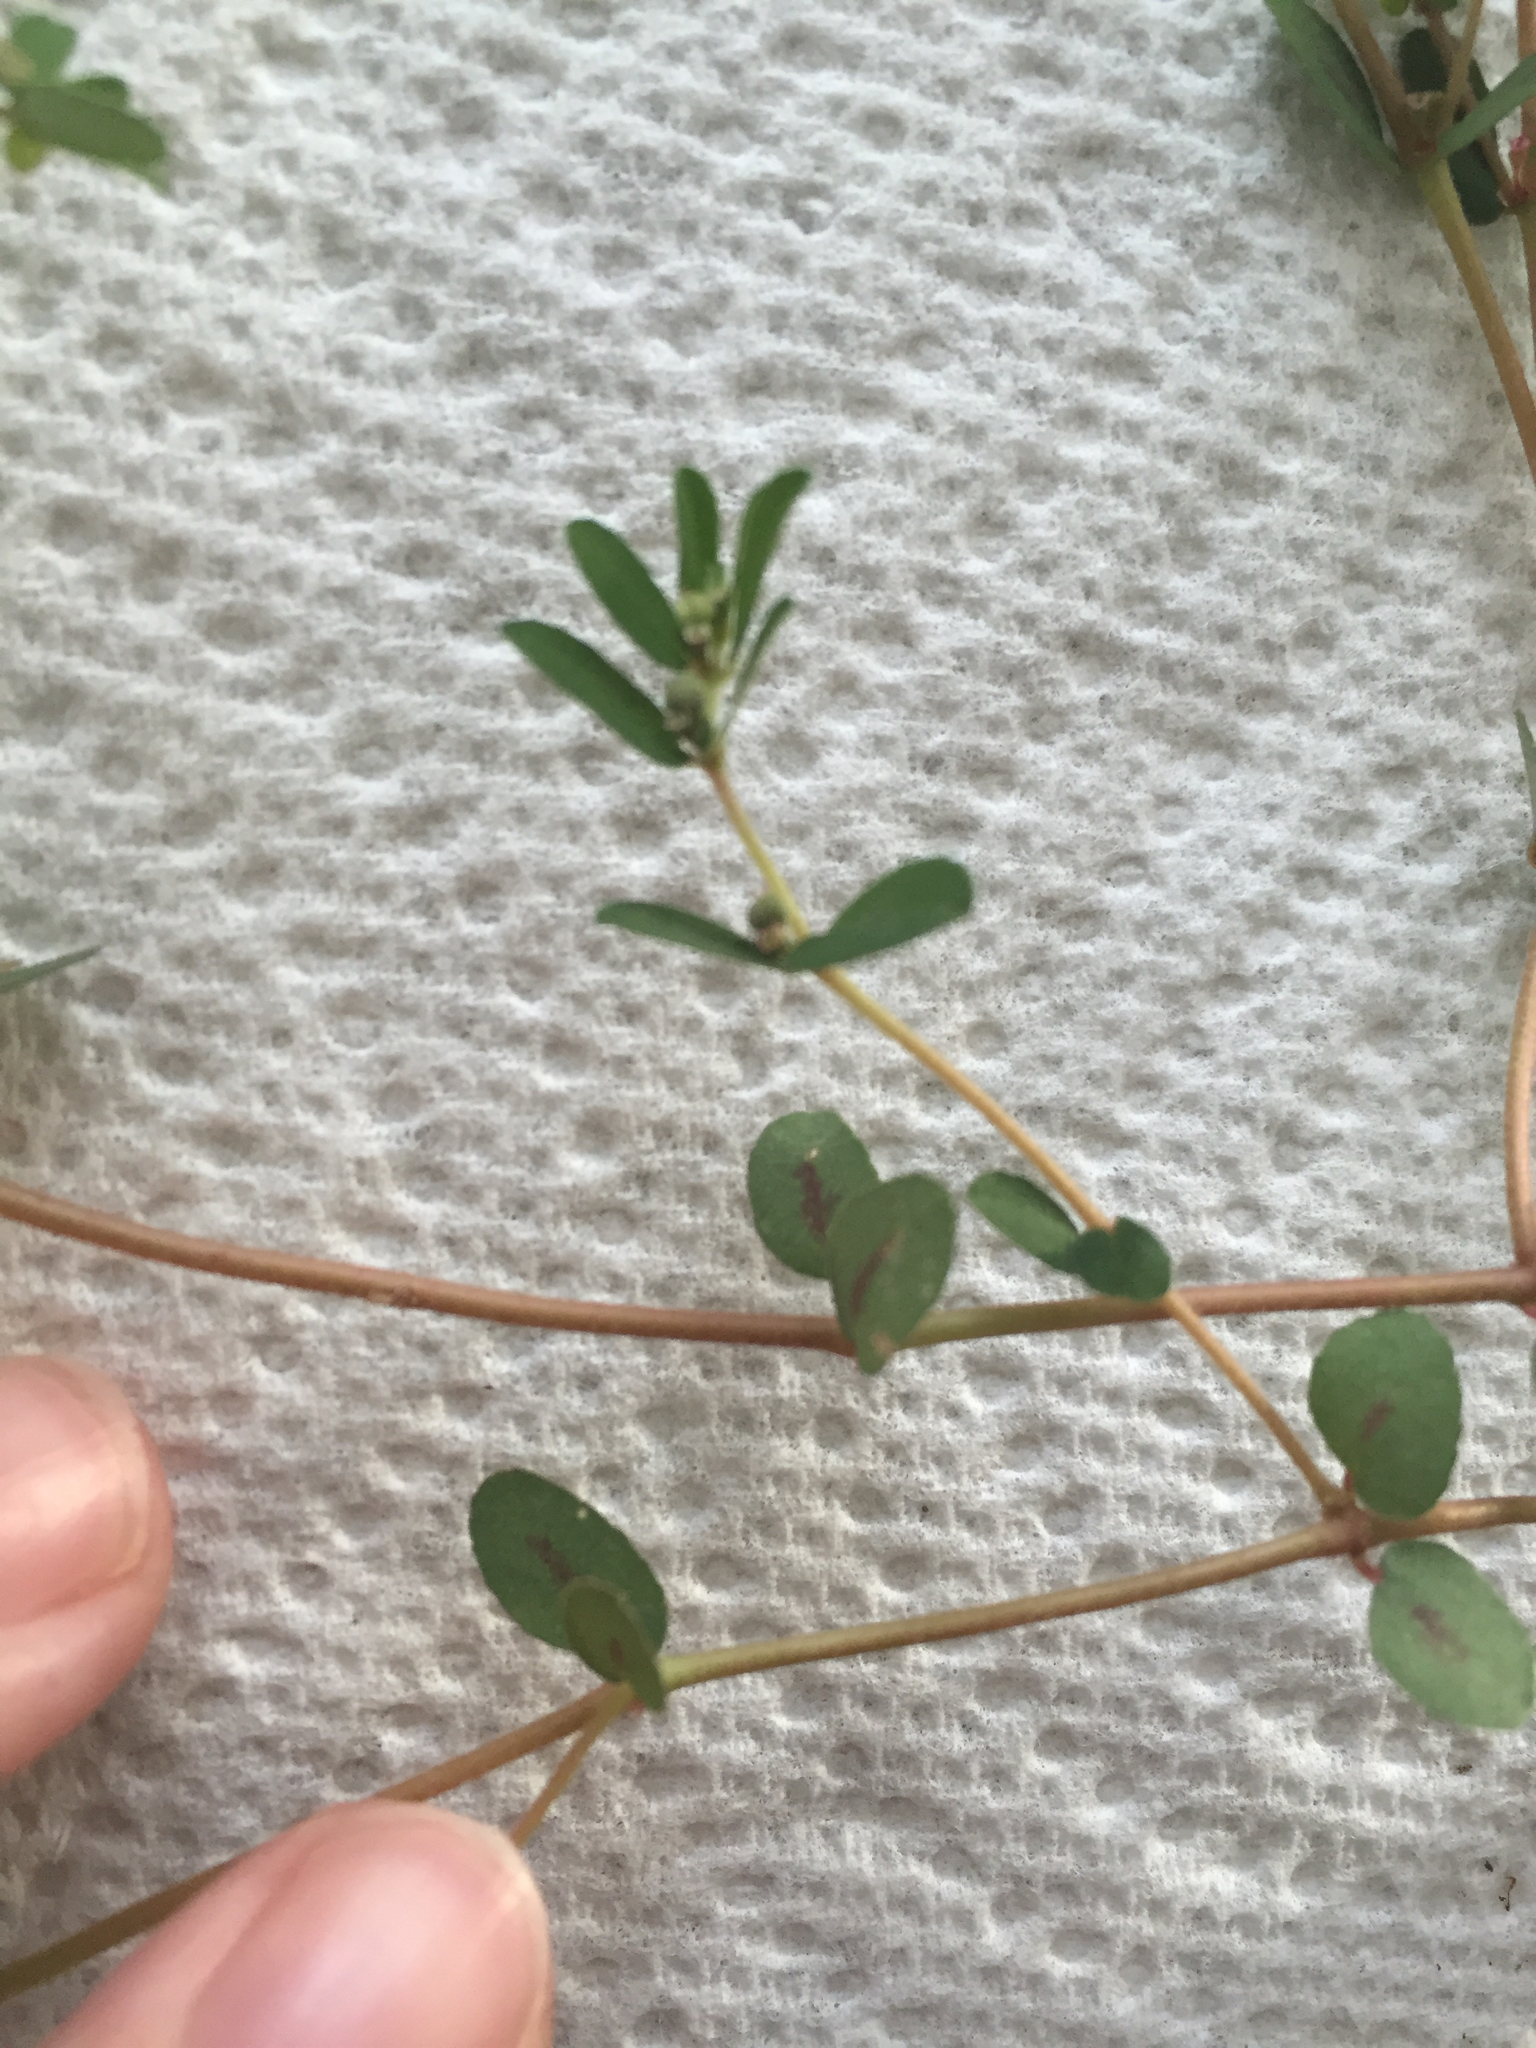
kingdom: Plantae
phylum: Tracheophyta
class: Magnoliopsida
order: Malpighiales
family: Euphorbiaceae
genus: Euphorbia
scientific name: Euphorbia maculata
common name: Spotted spurge
